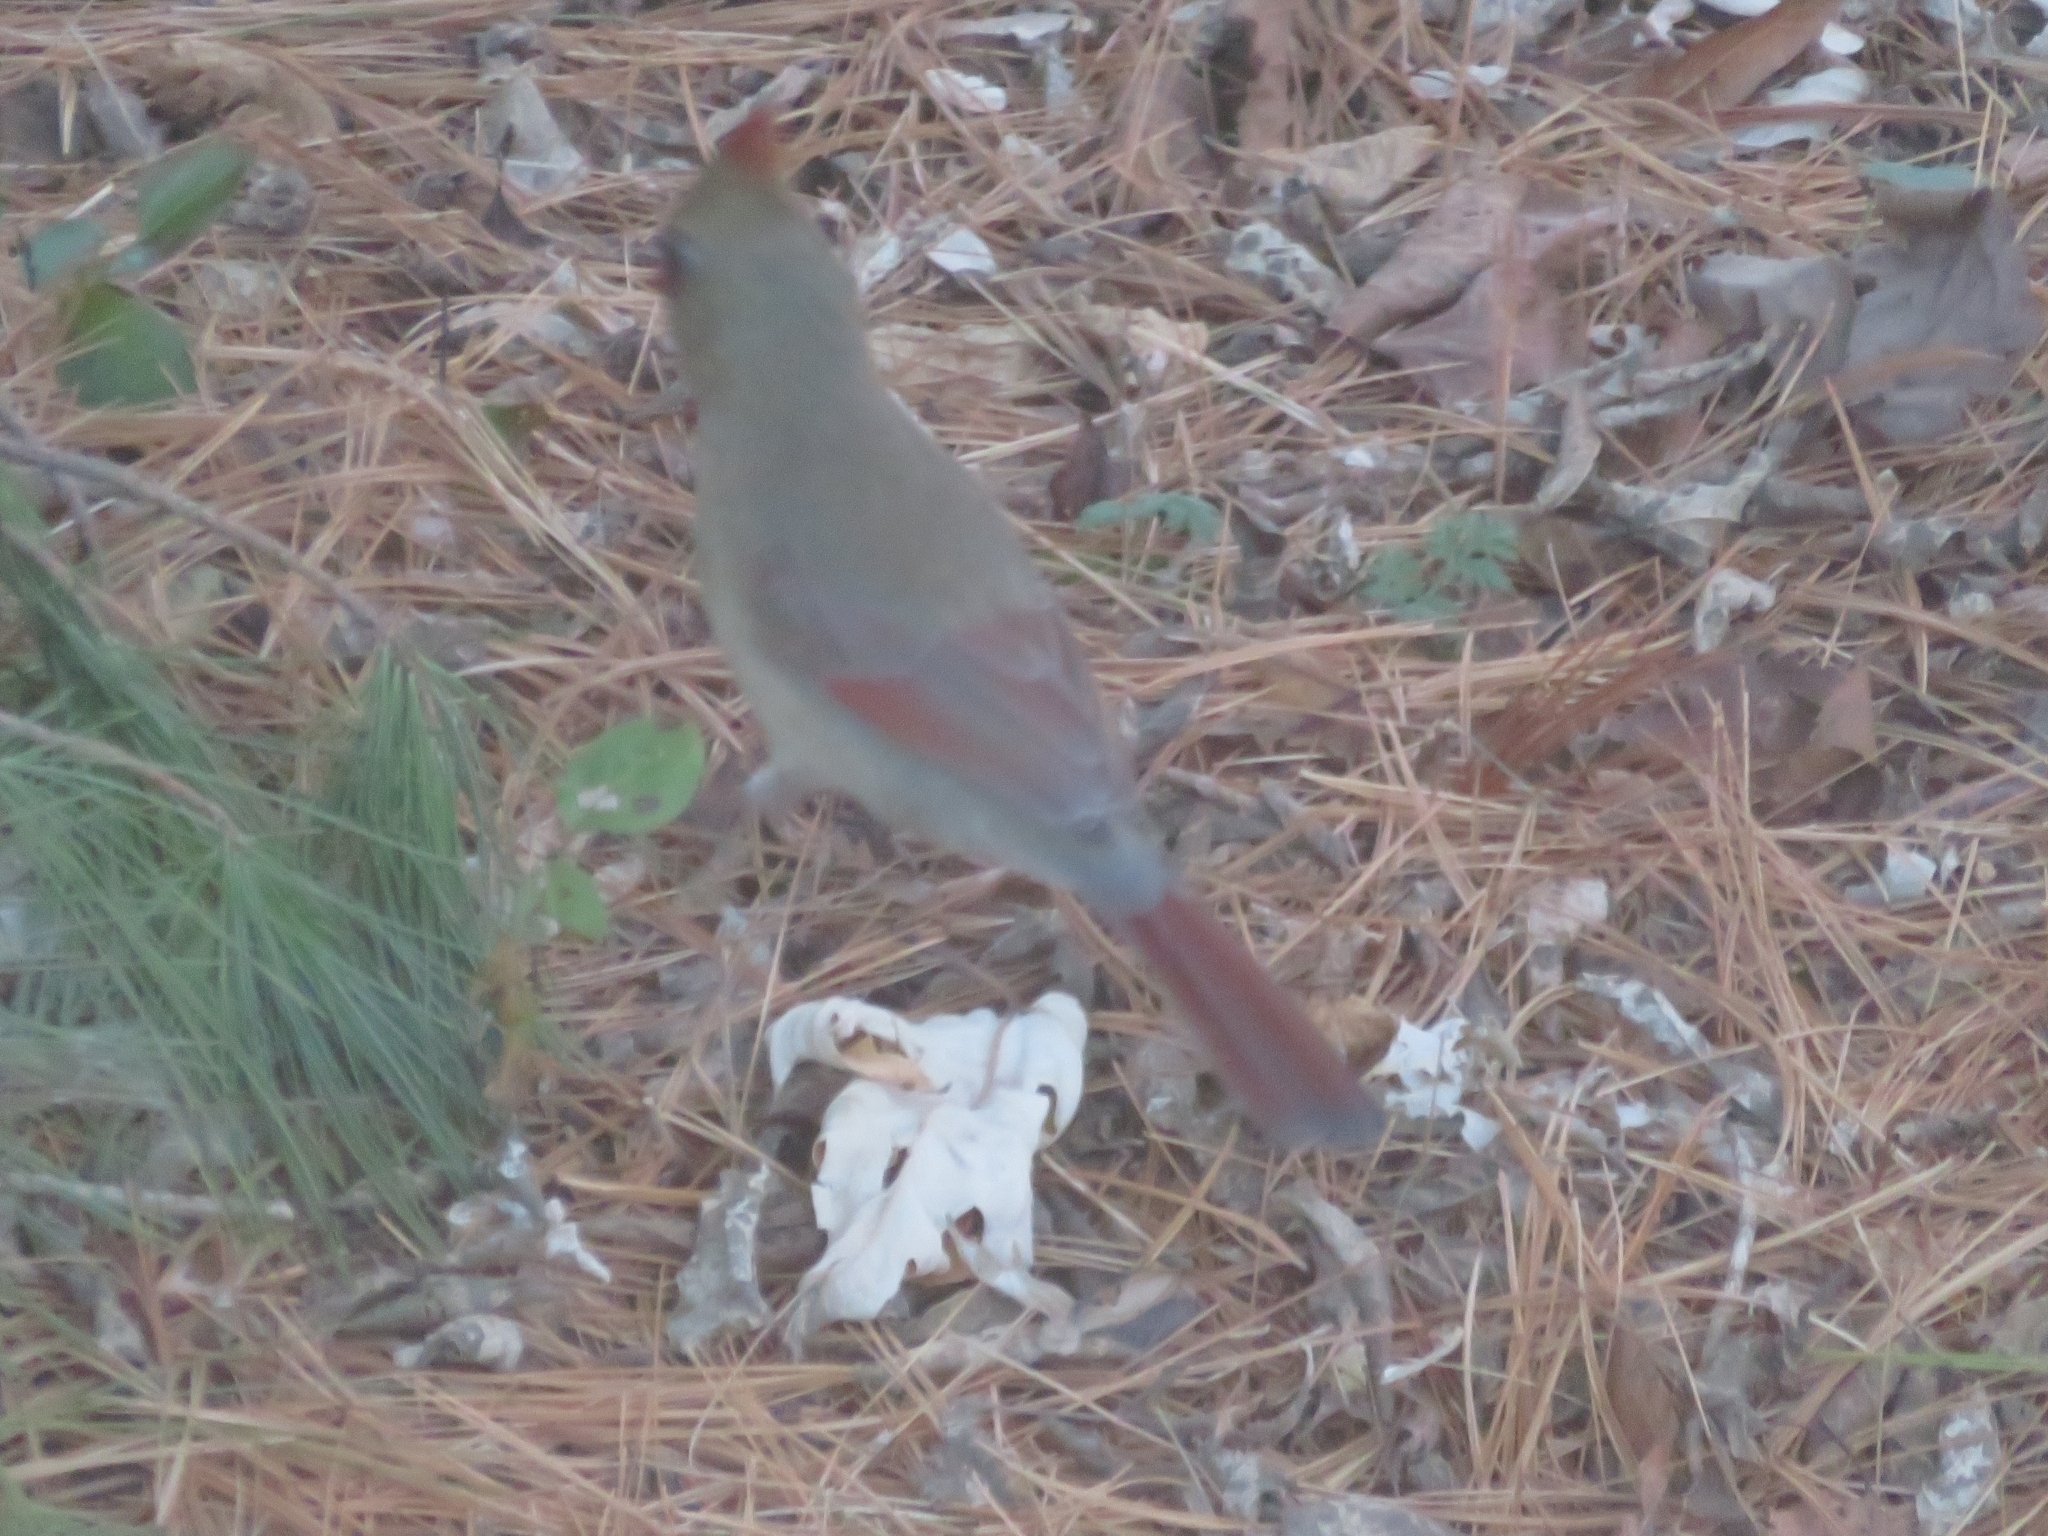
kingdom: Animalia
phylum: Chordata
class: Aves
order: Passeriformes
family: Cardinalidae
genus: Cardinalis
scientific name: Cardinalis cardinalis
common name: Northern cardinal
